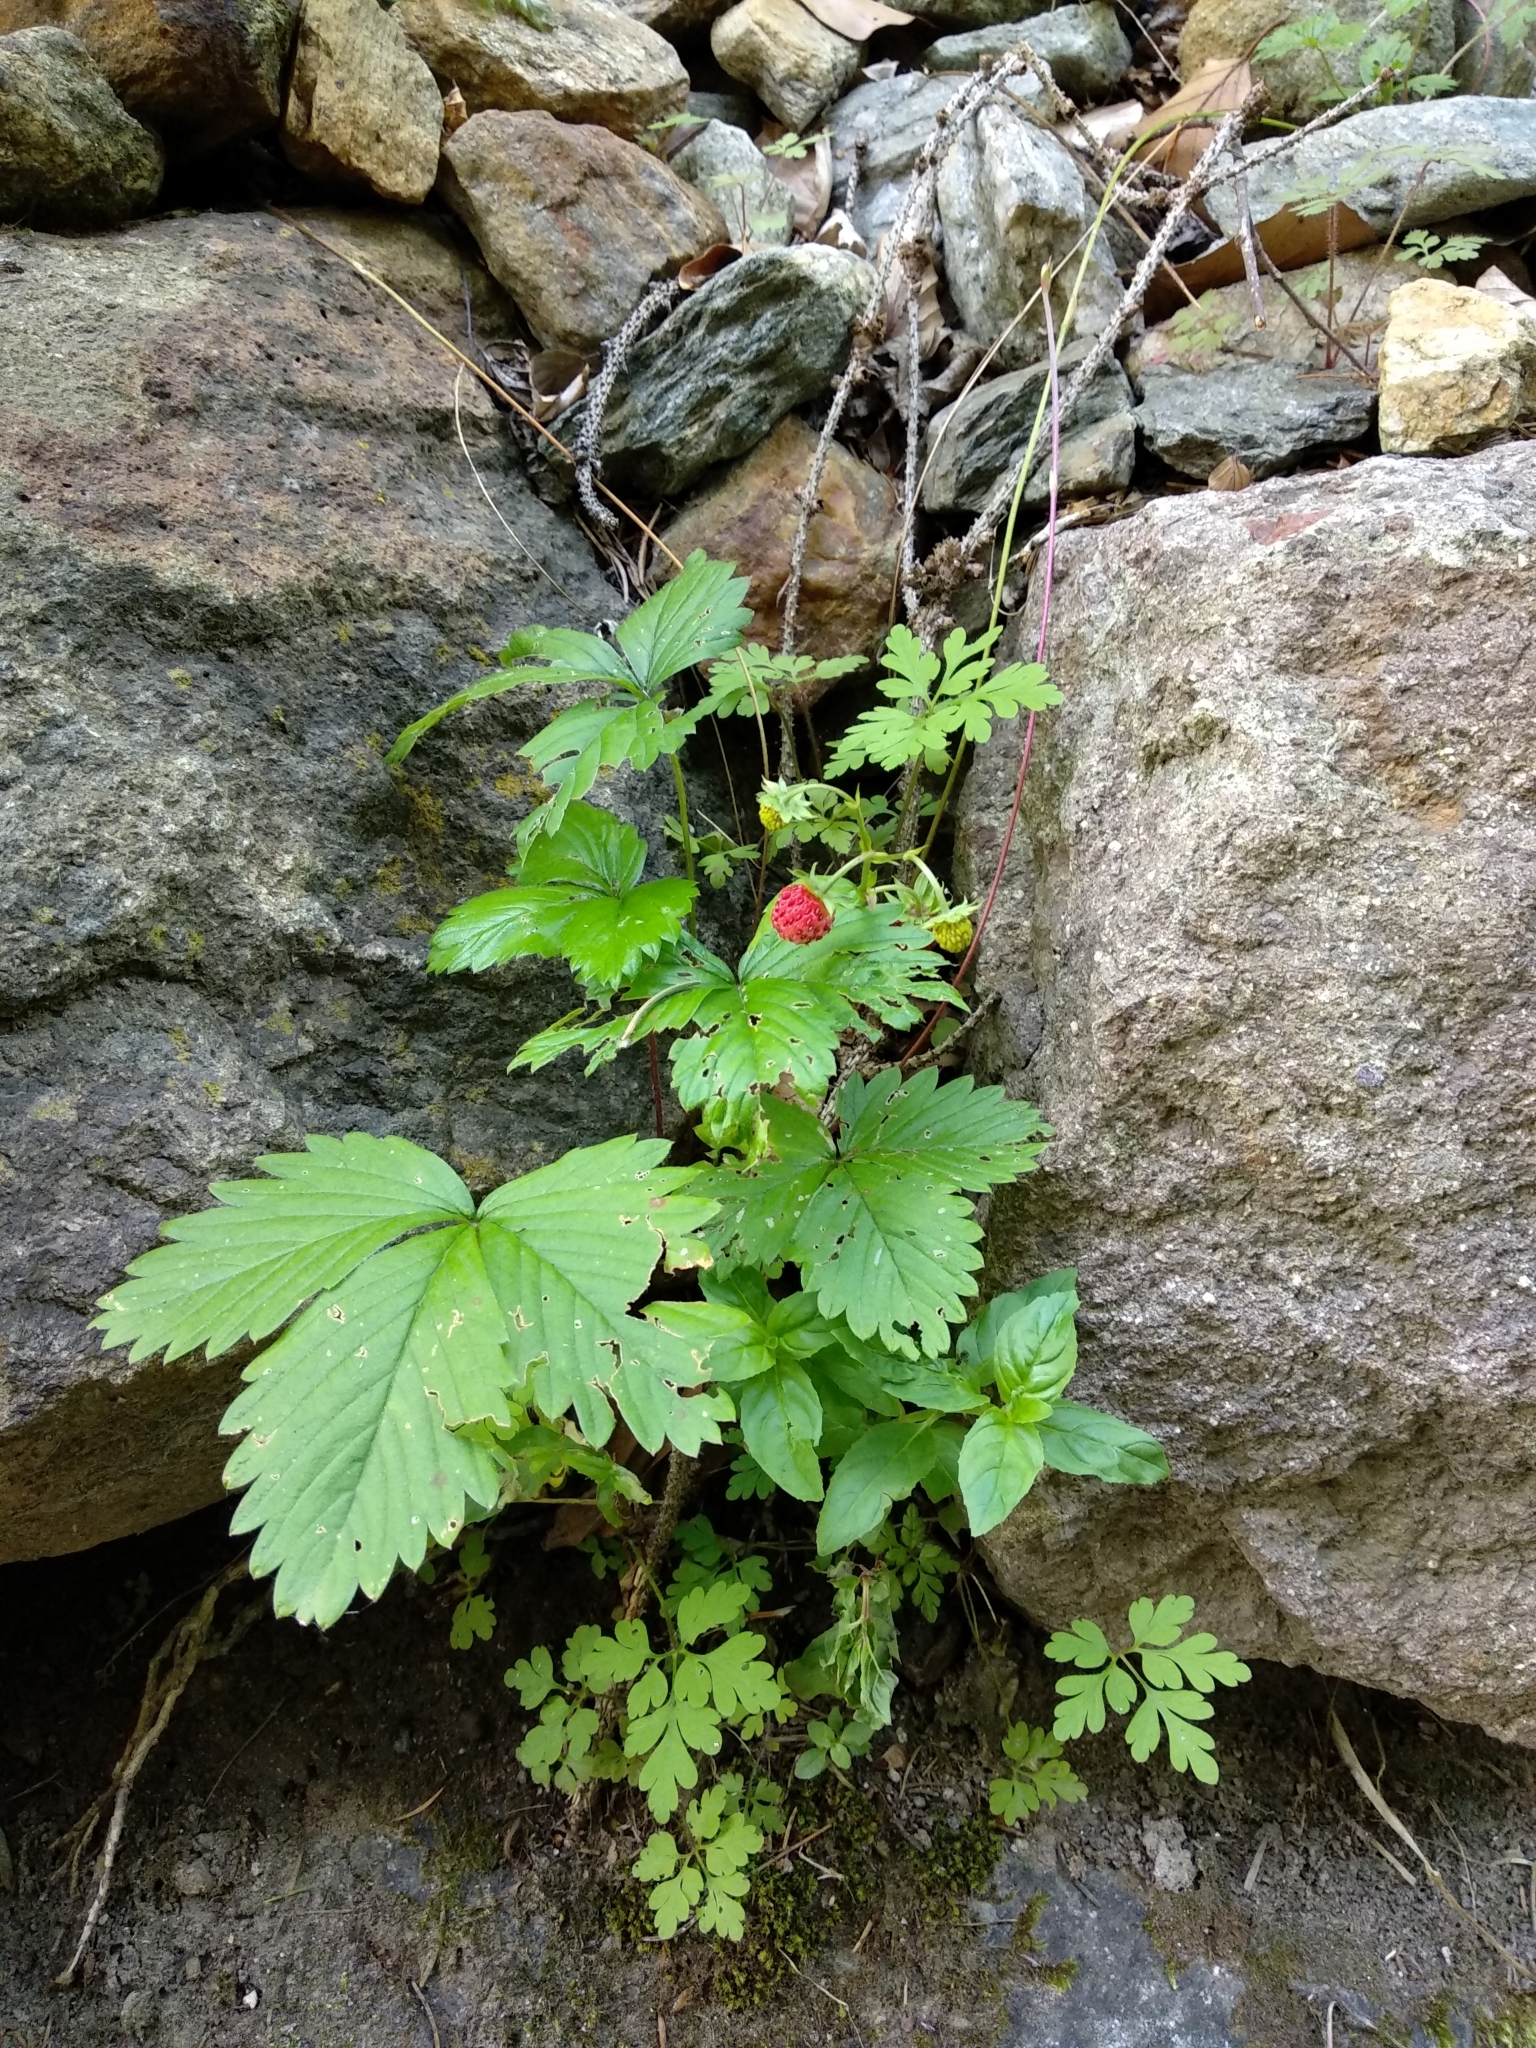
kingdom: Plantae
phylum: Tracheophyta
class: Magnoliopsida
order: Rosales
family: Rosaceae
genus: Fragaria
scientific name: Fragaria vesca
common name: Wild strawberry
